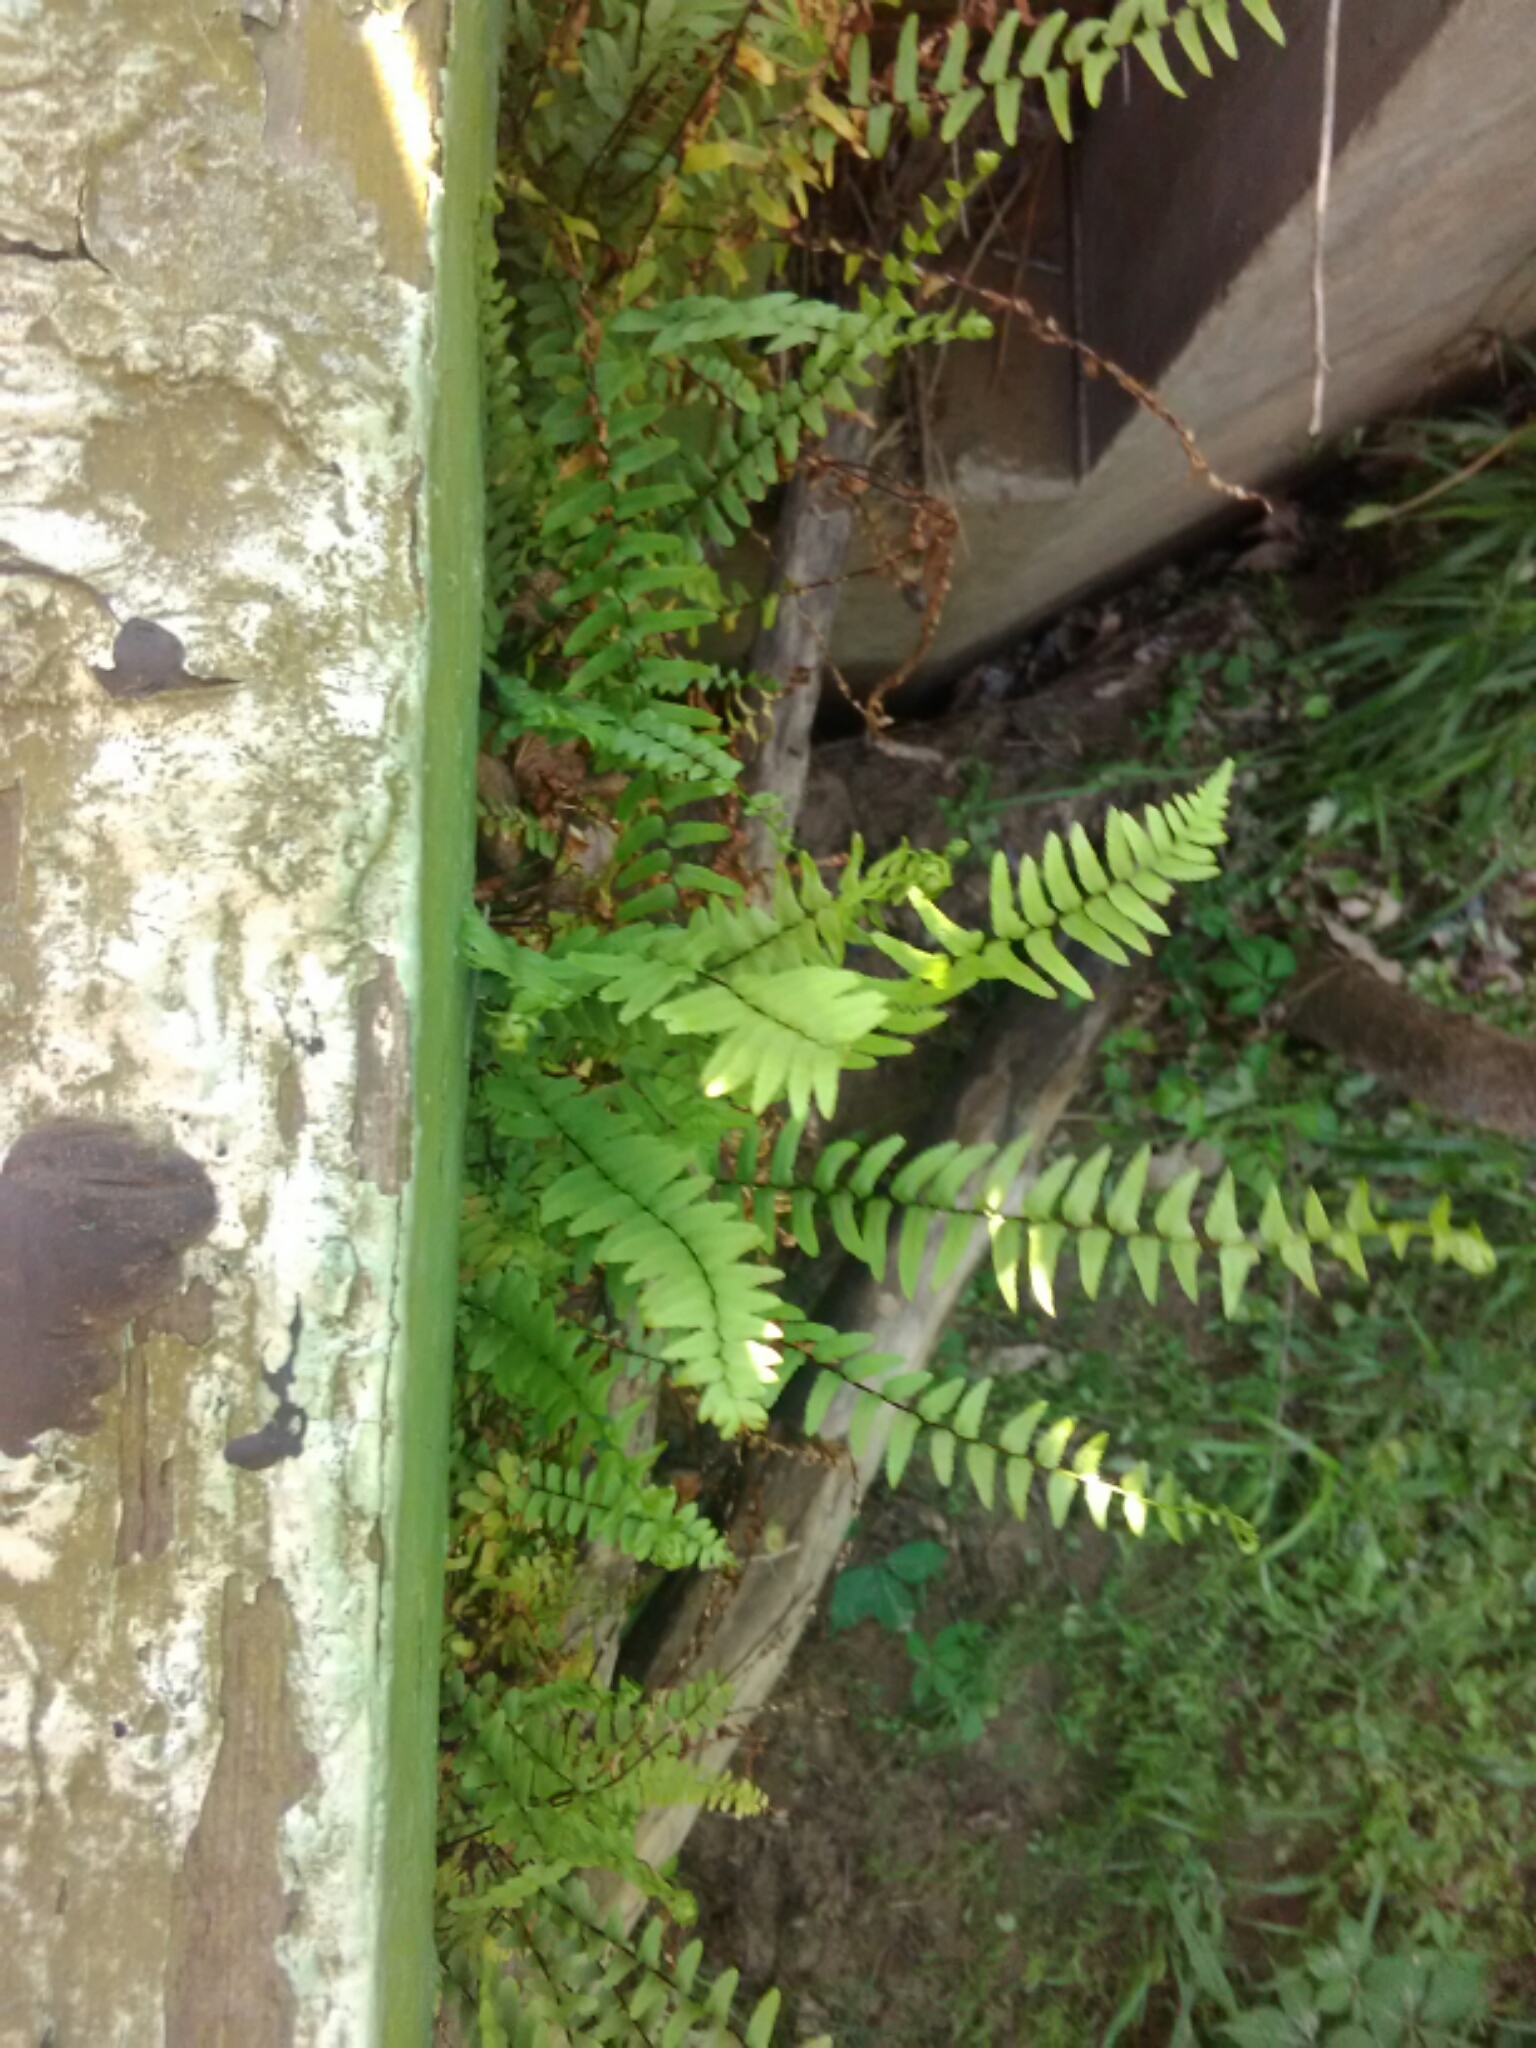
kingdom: Plantae
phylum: Tracheophyta
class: Polypodiopsida
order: Polypodiales
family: Aspleniaceae
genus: Asplenium
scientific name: Asplenium platyneuron
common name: Ebony spleenwort
